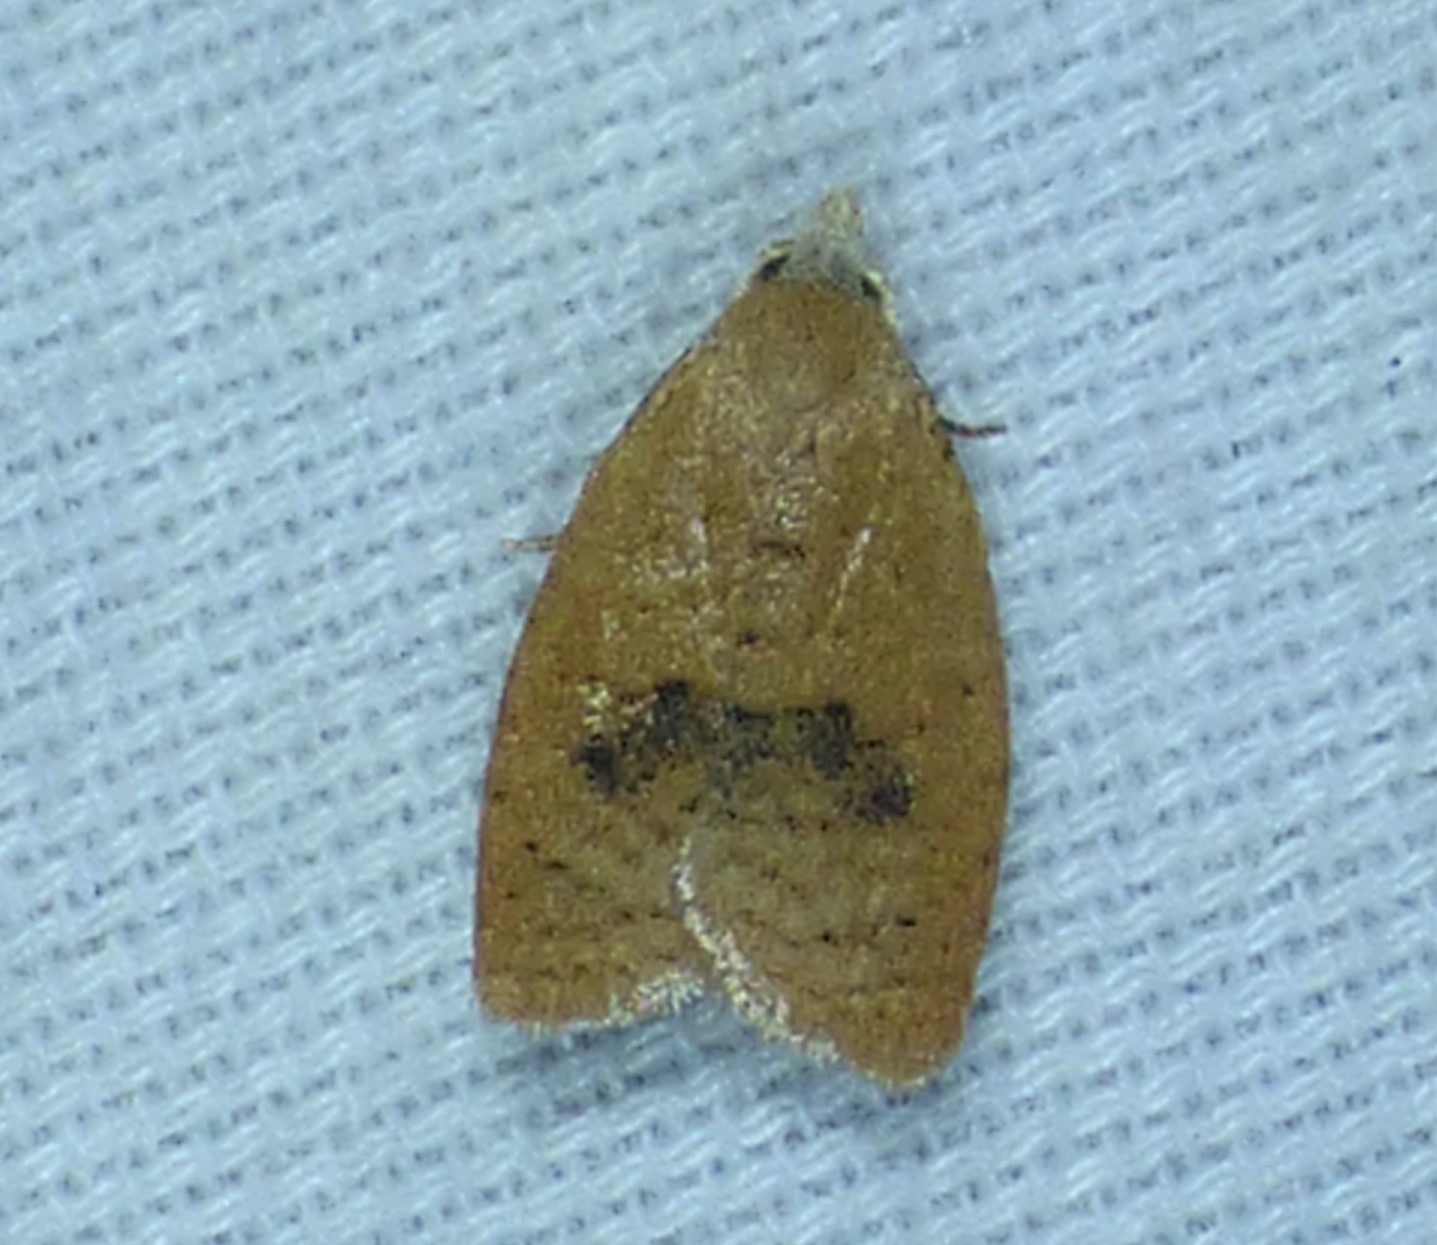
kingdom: Animalia
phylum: Arthropoda
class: Insecta
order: Lepidoptera
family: Tortricidae
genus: Sparganothoides
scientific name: Sparganothoides lentiginosana
